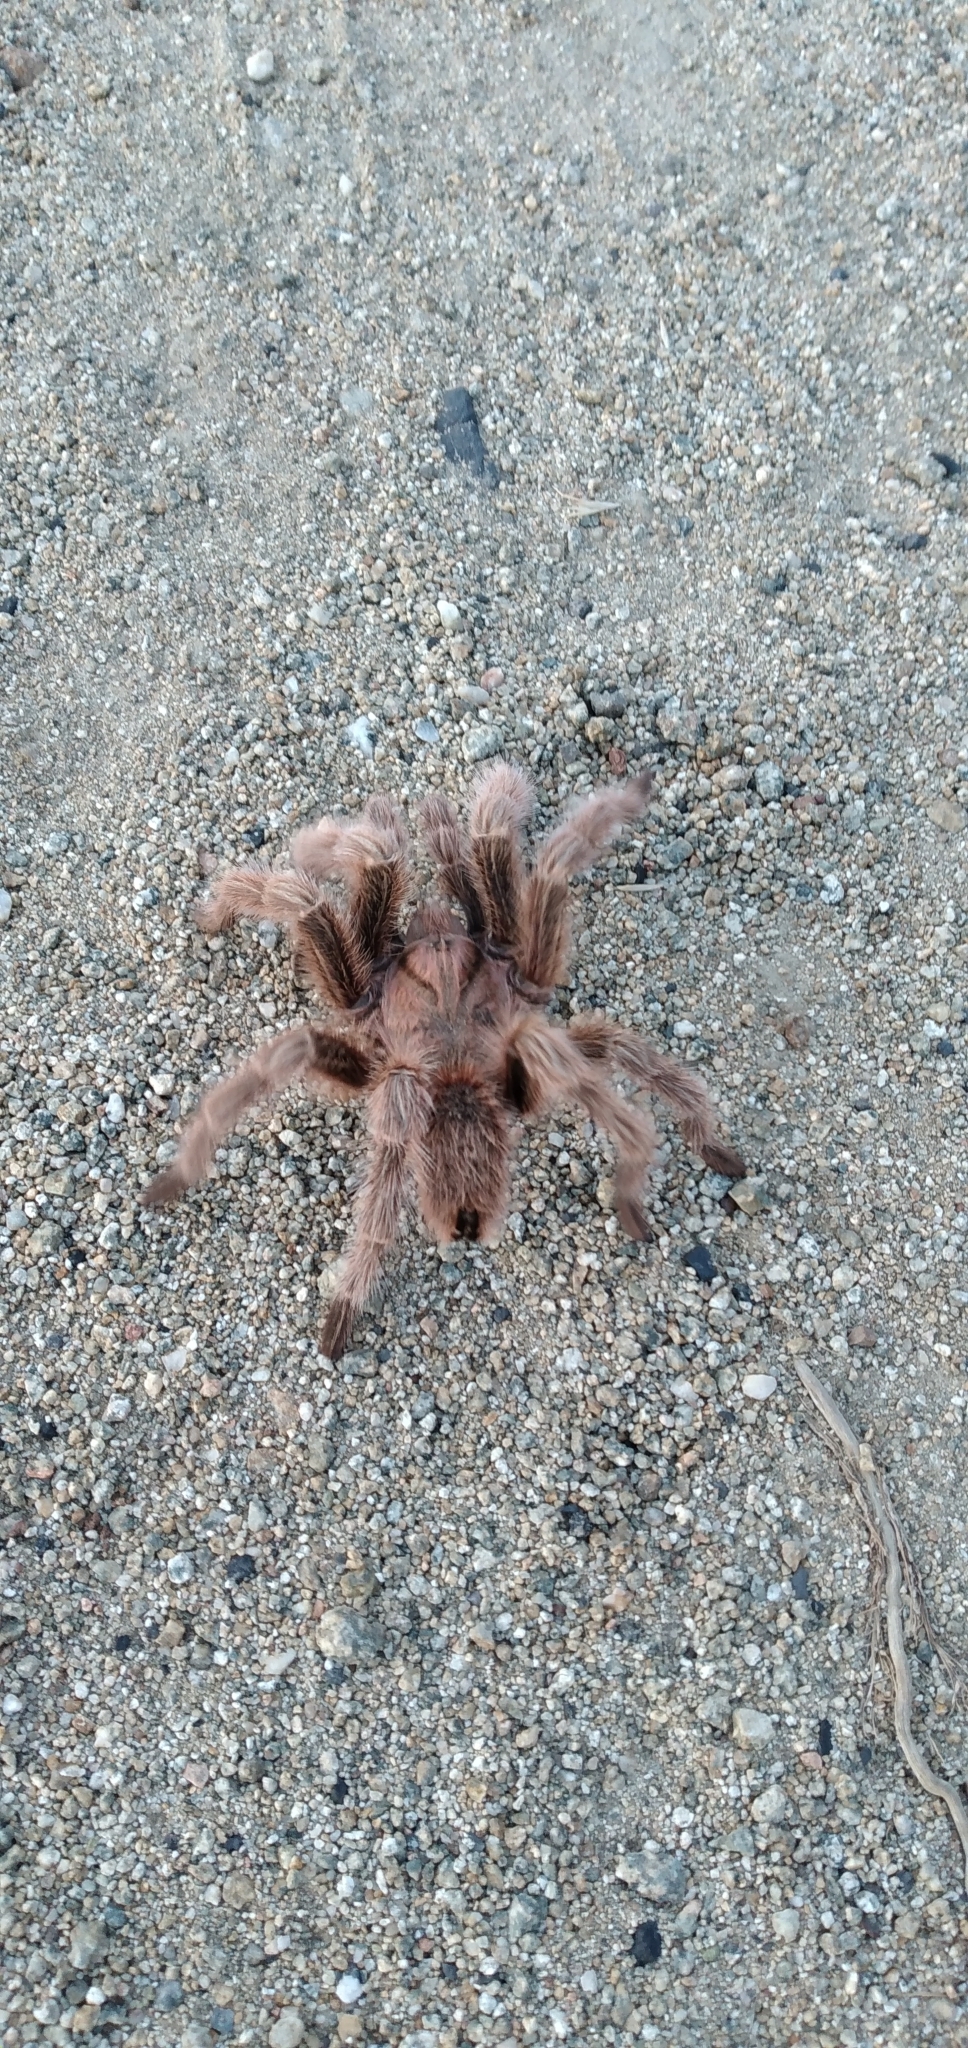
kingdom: Animalia
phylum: Arthropoda
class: Arachnida
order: Araneae
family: Theraphosidae
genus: Grammostola
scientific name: Grammostola rosea
